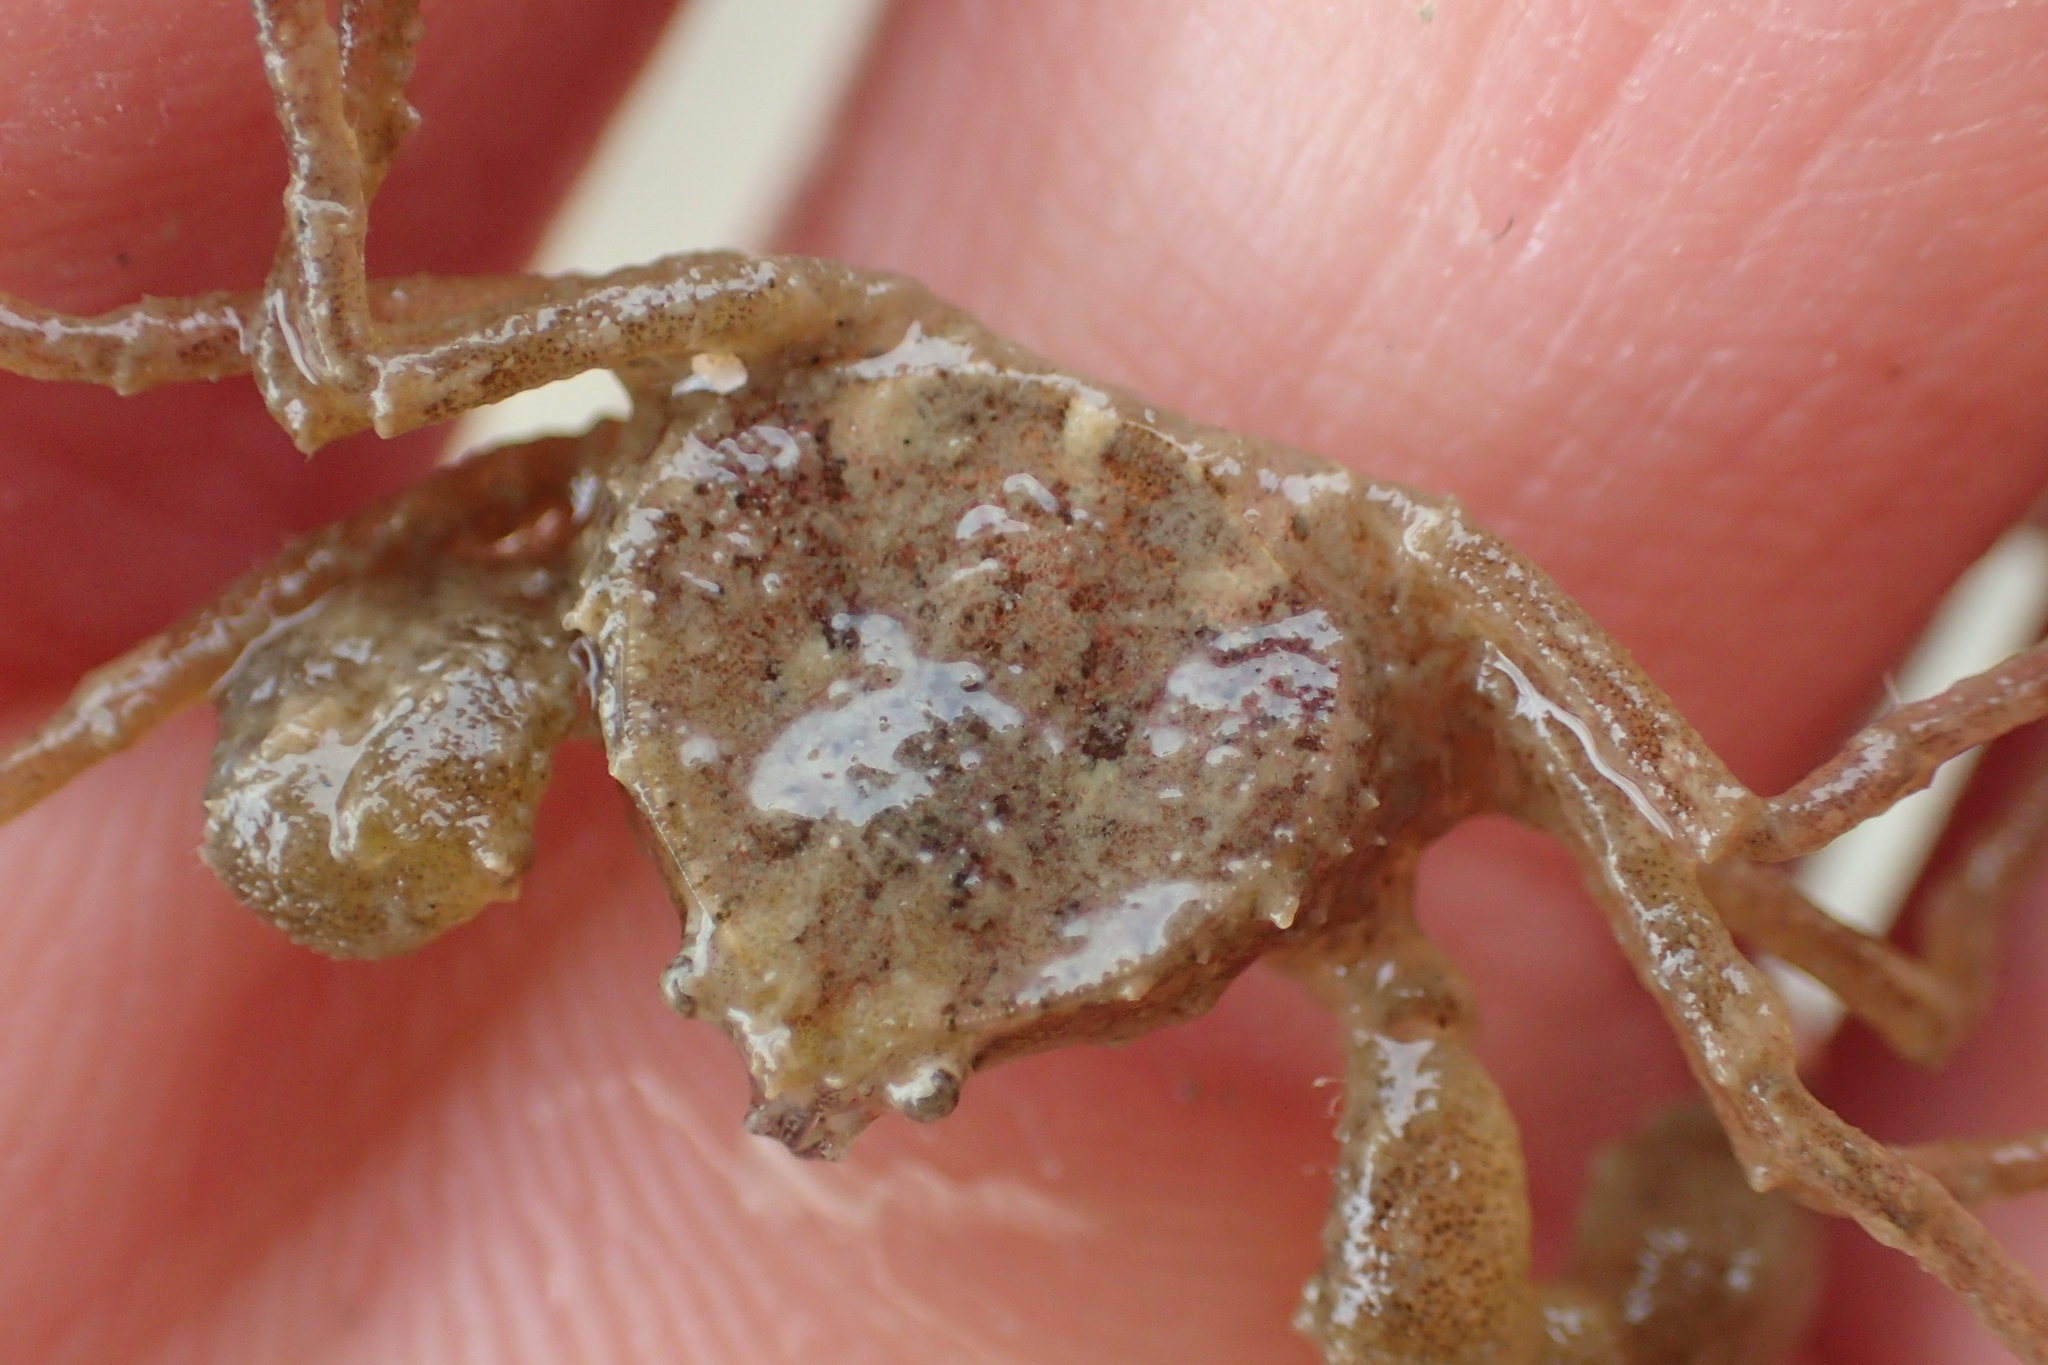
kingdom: Animalia
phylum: Arthropoda
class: Malacostraca
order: Decapoda
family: Hymenosomatidae
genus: Halicarcinus
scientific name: Halicarcinus varius
